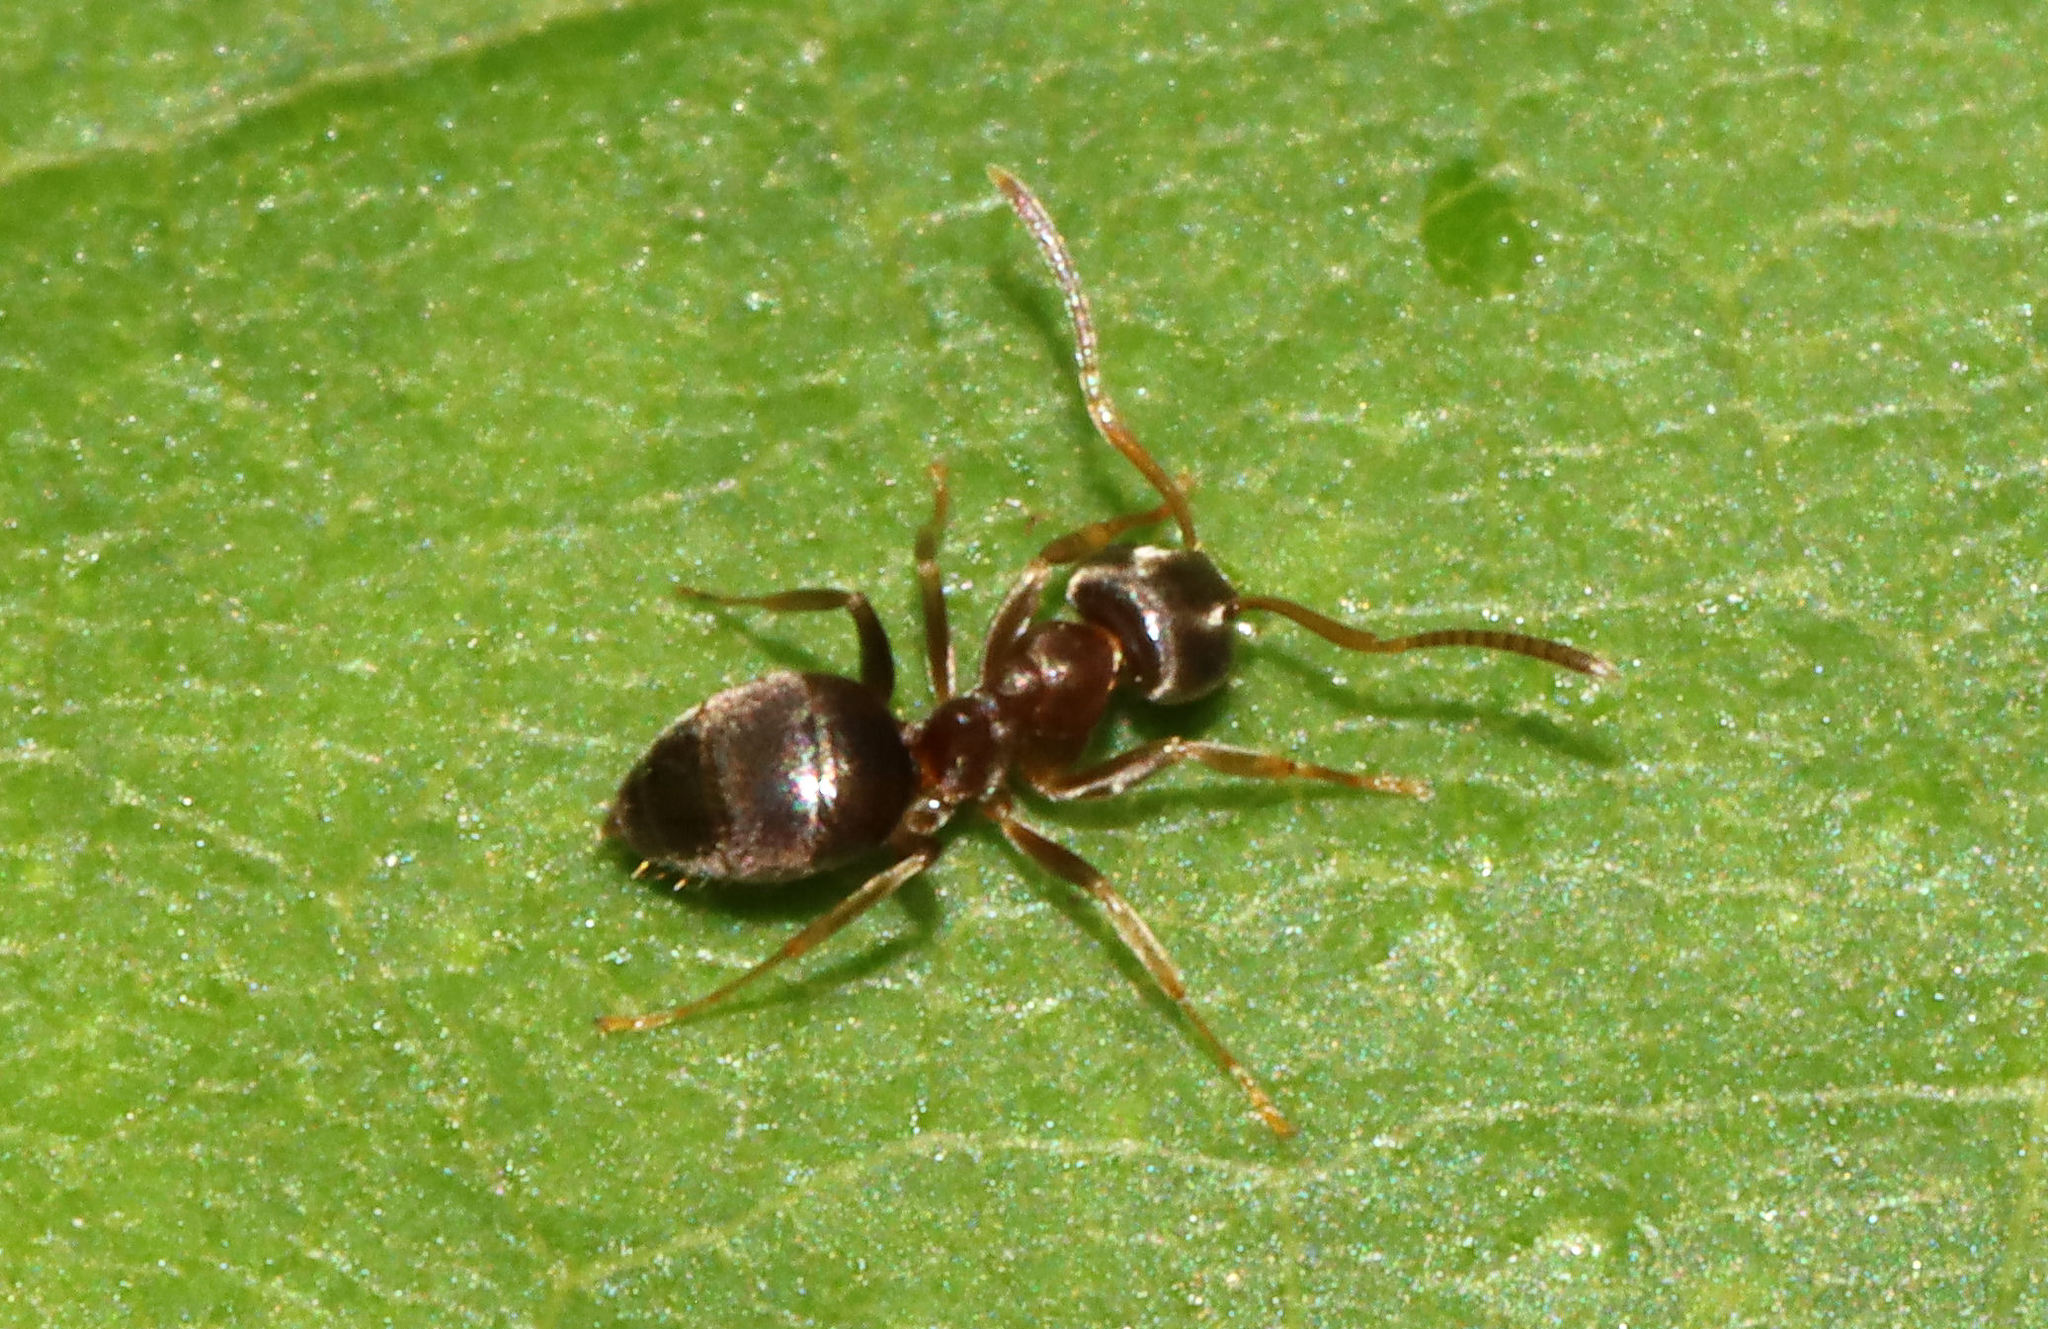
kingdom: Animalia
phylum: Arthropoda
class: Insecta
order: Hymenoptera
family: Formicidae
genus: Lasius
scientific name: Lasius americanus
